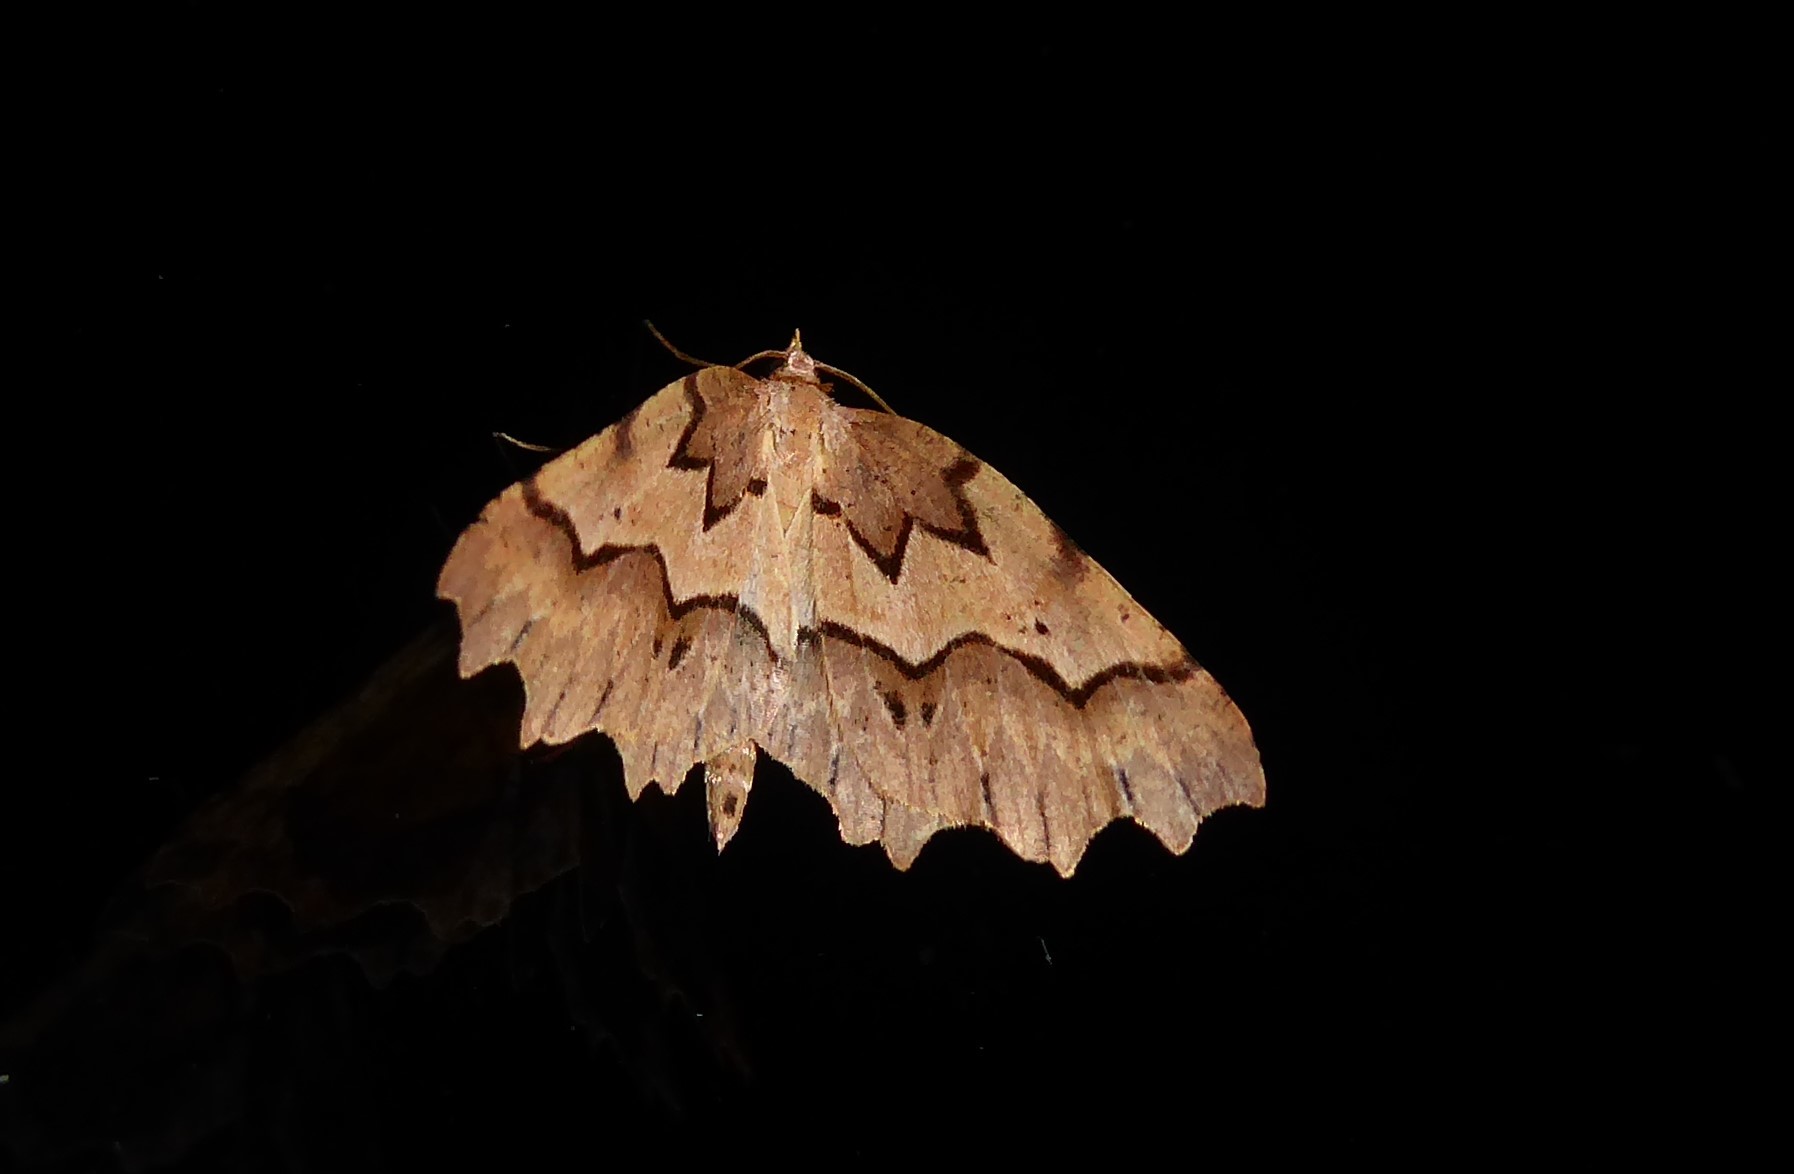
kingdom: Animalia
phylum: Arthropoda
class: Insecta
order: Lepidoptera
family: Geometridae
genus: Ischalis
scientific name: Ischalis fortinata
